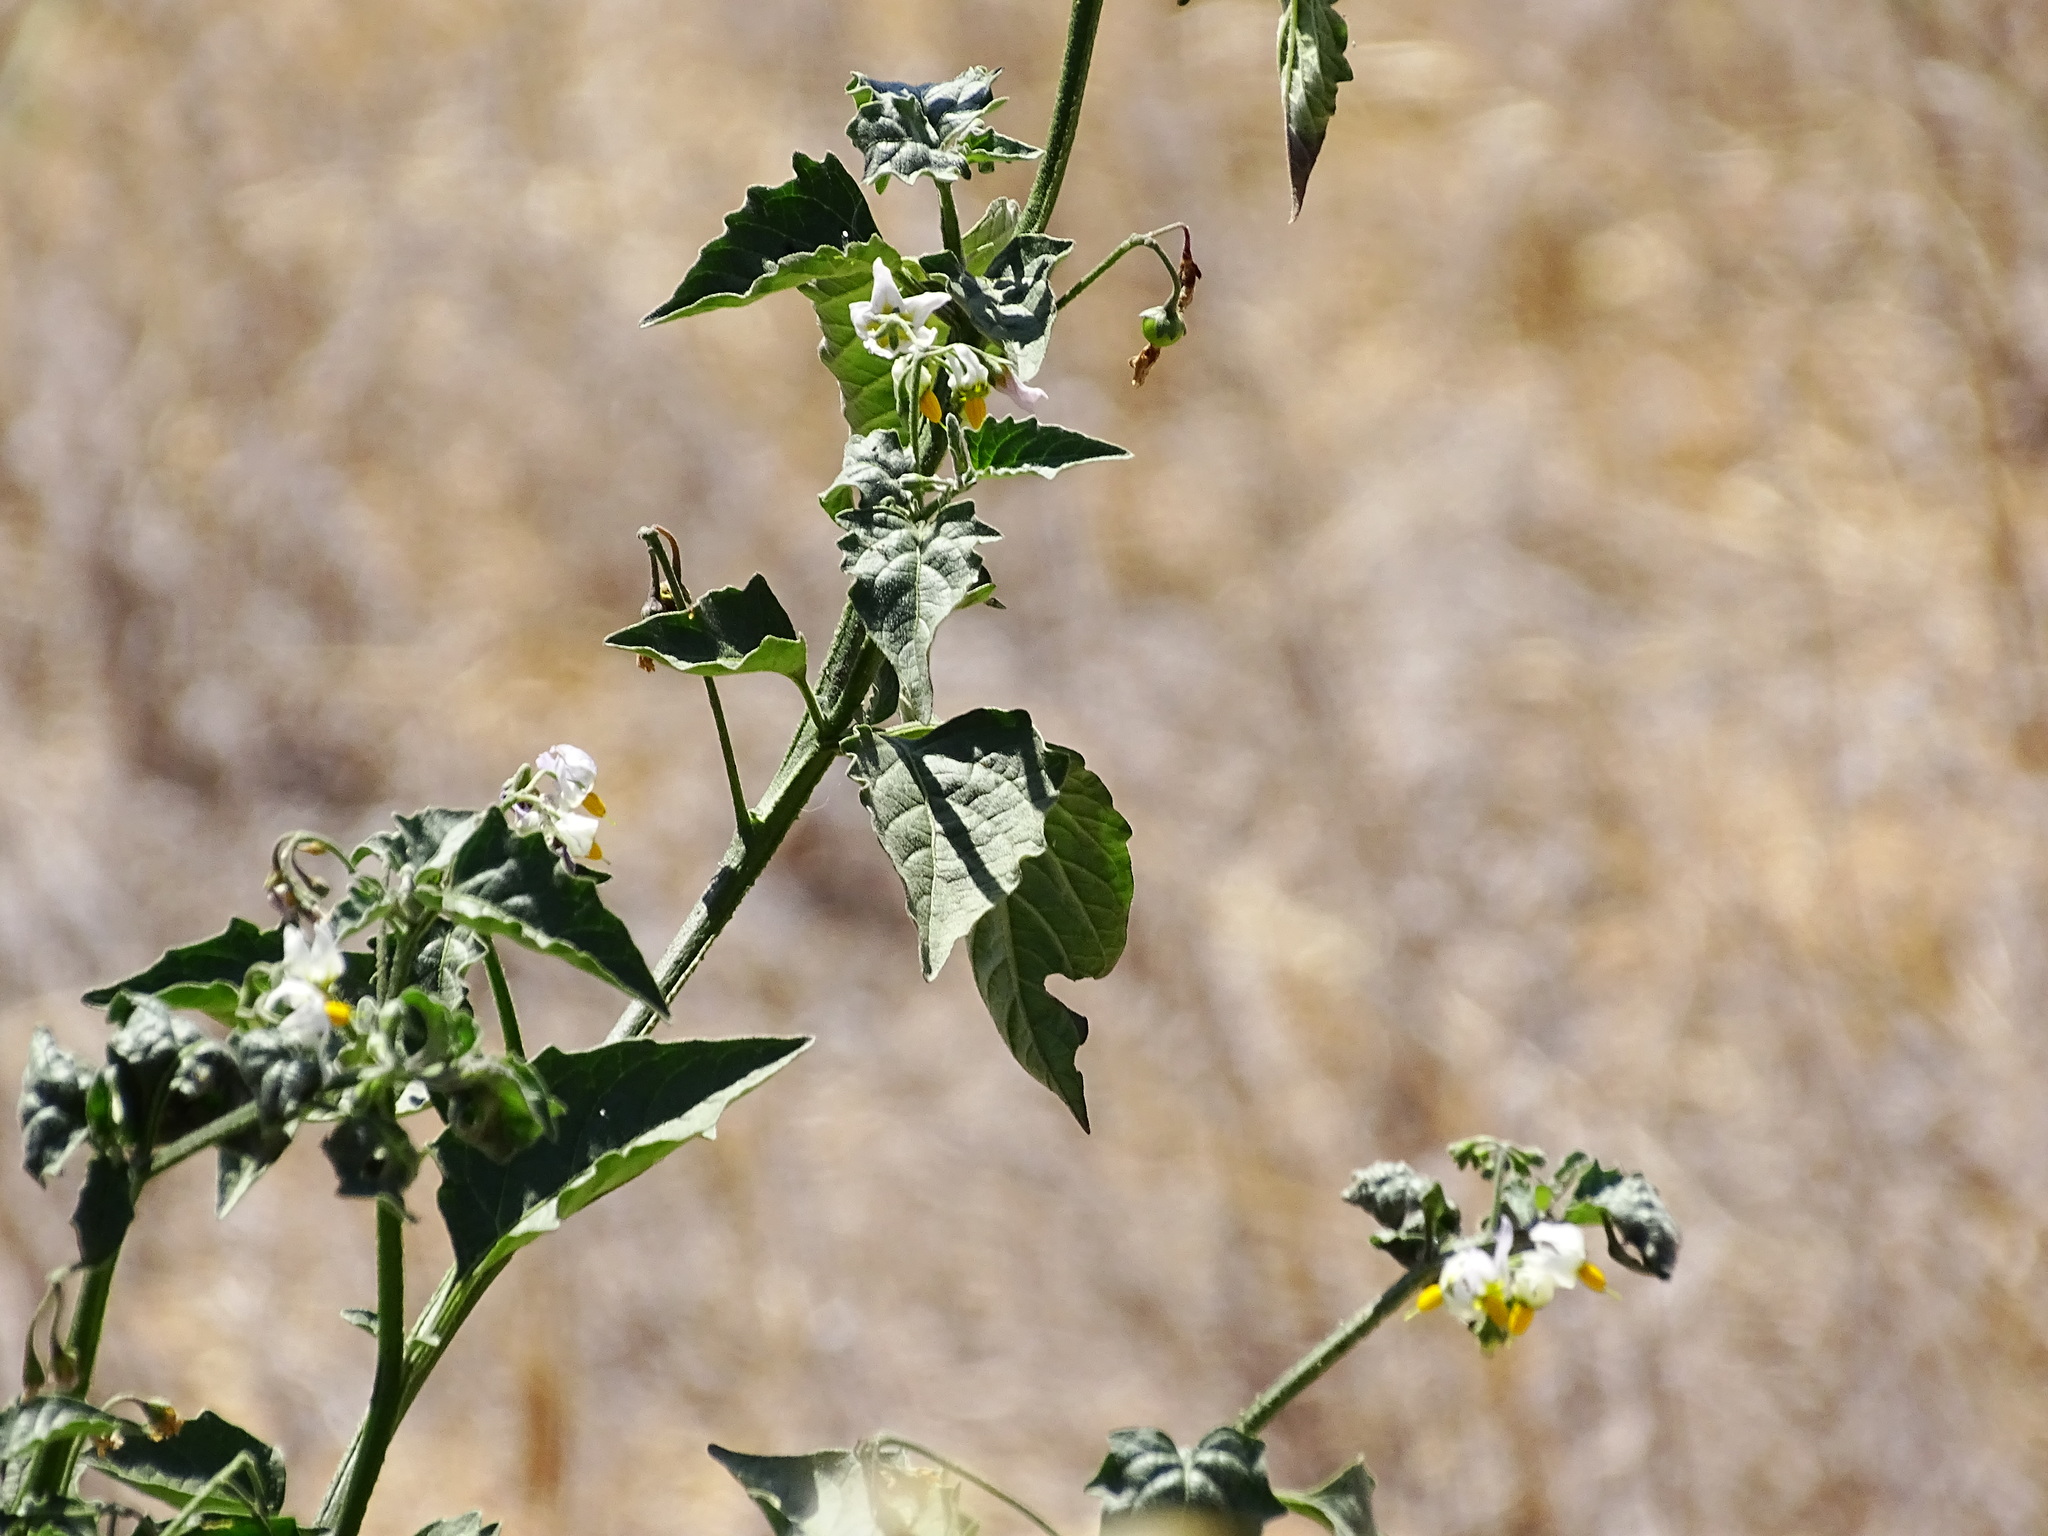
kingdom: Plantae
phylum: Tracheophyta
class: Magnoliopsida
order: Solanales
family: Solanaceae
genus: Solanum
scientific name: Solanum douglasii
